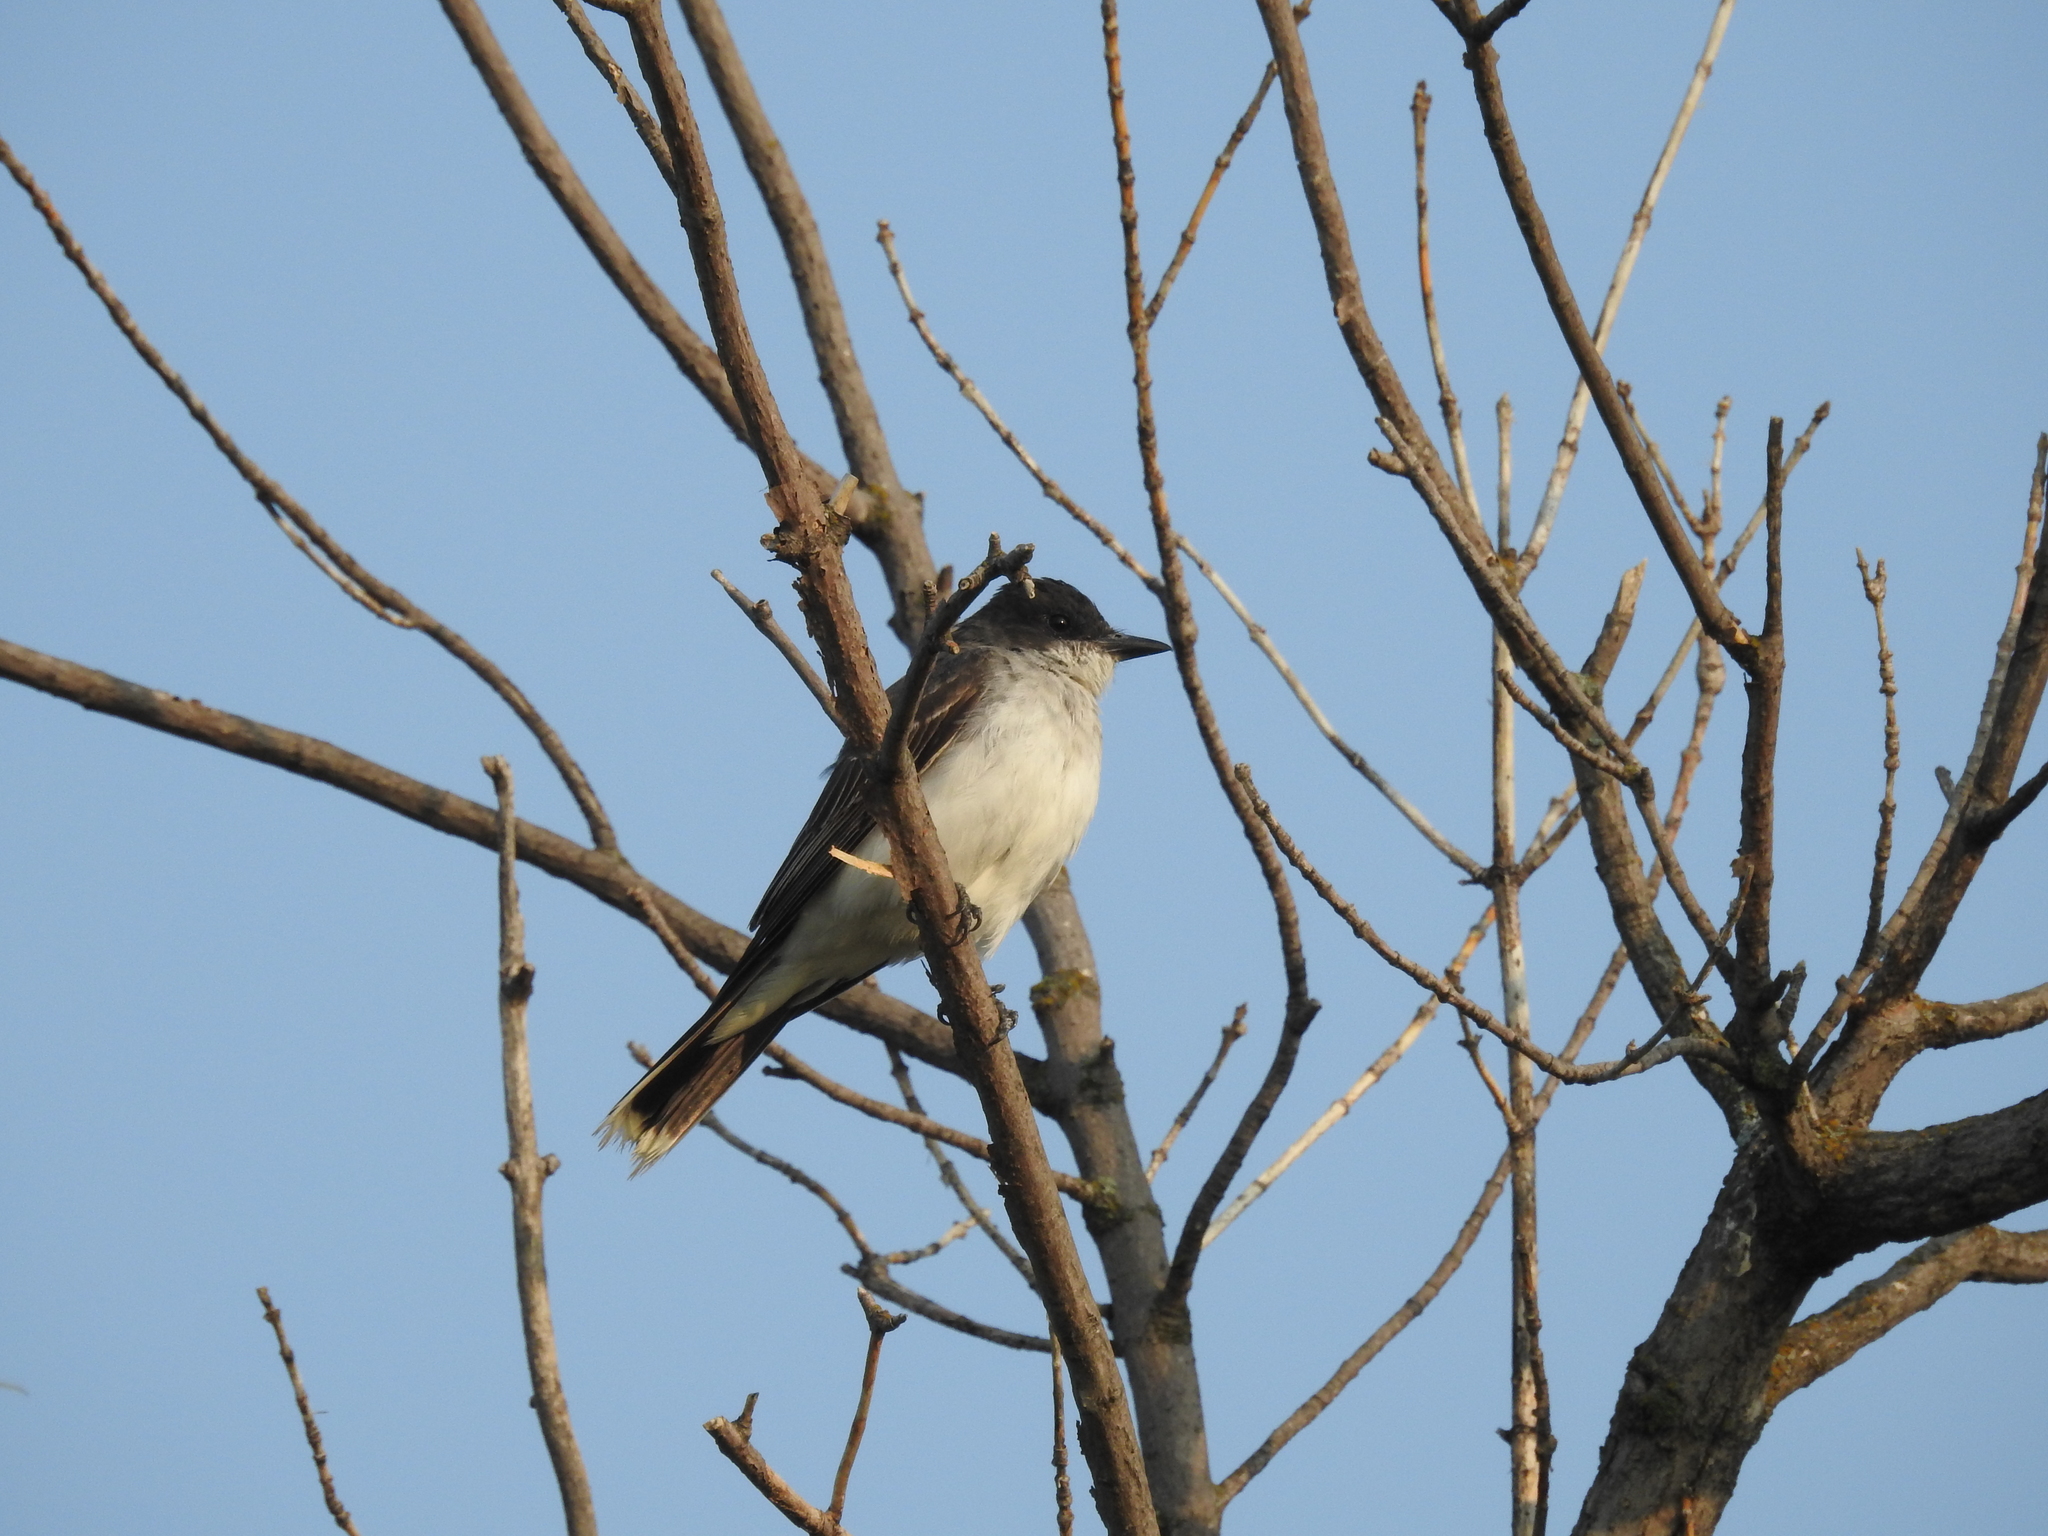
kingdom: Animalia
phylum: Chordata
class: Aves
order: Passeriformes
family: Tyrannidae
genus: Tyrannus
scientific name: Tyrannus tyrannus
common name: Eastern kingbird
